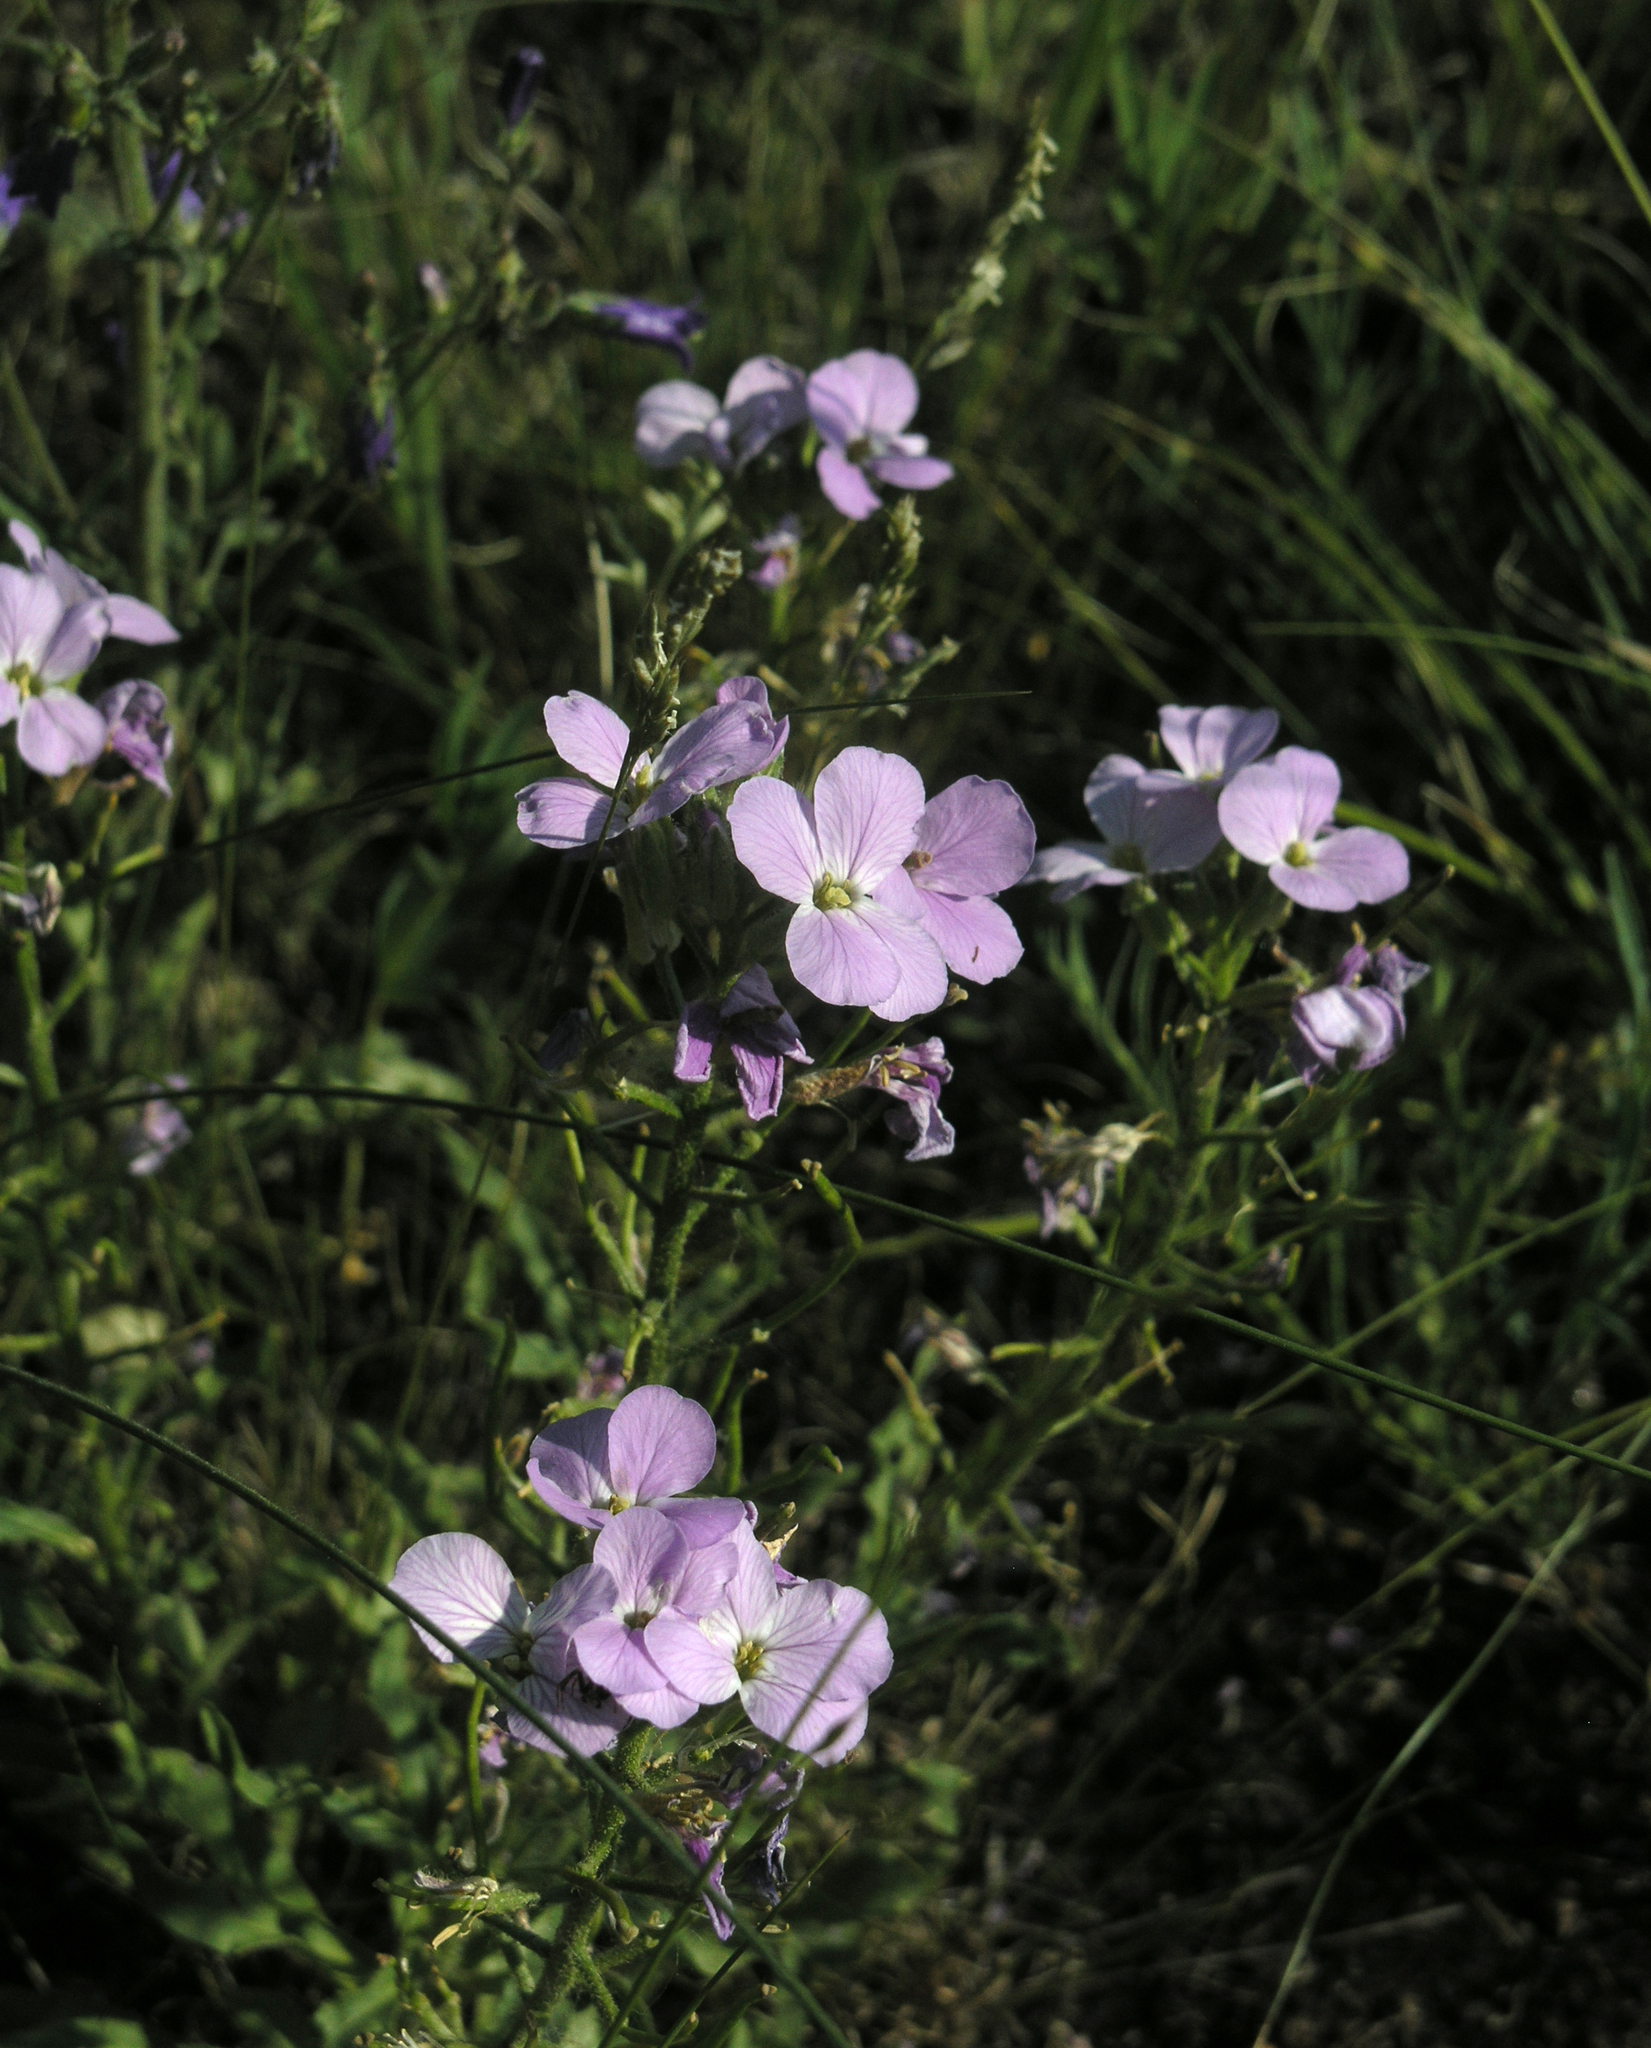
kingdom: Plantae
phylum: Tracheophyta
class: Magnoliopsida
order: Brassicales
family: Brassicaceae
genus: Clausia
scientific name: Clausia aprica
